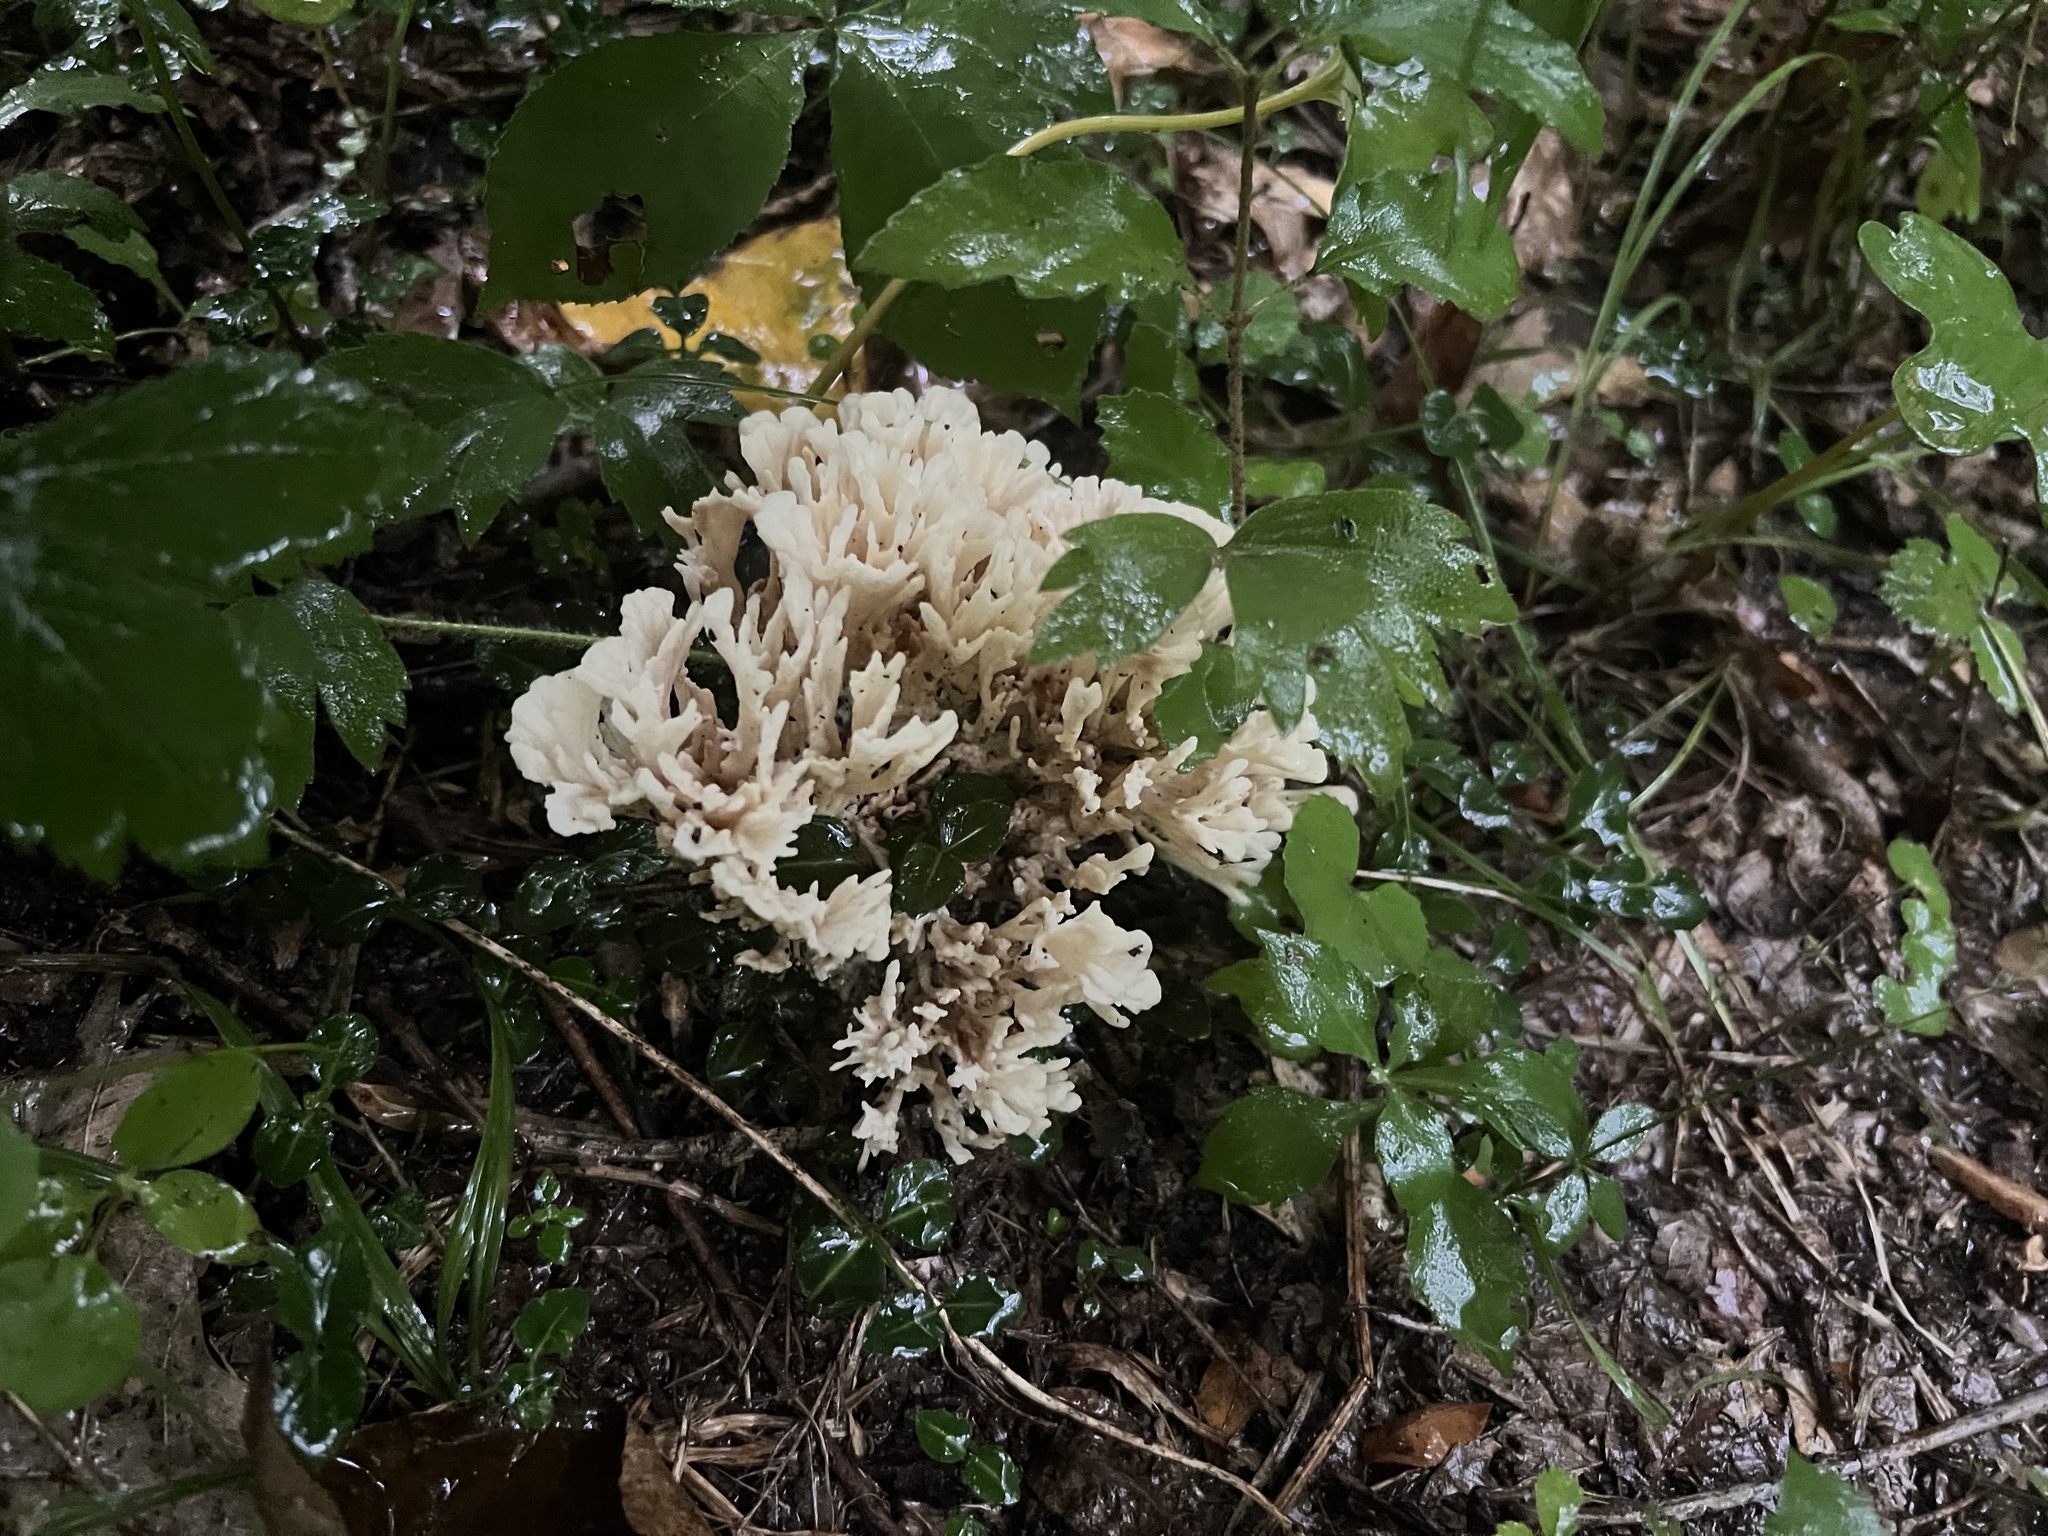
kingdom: Fungi
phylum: Basidiomycota
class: Agaricomycetes
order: Sebacinales
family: Sebacinaceae
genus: Sebacina
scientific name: Sebacina schweinitzii
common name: Jellied false coral fungus
